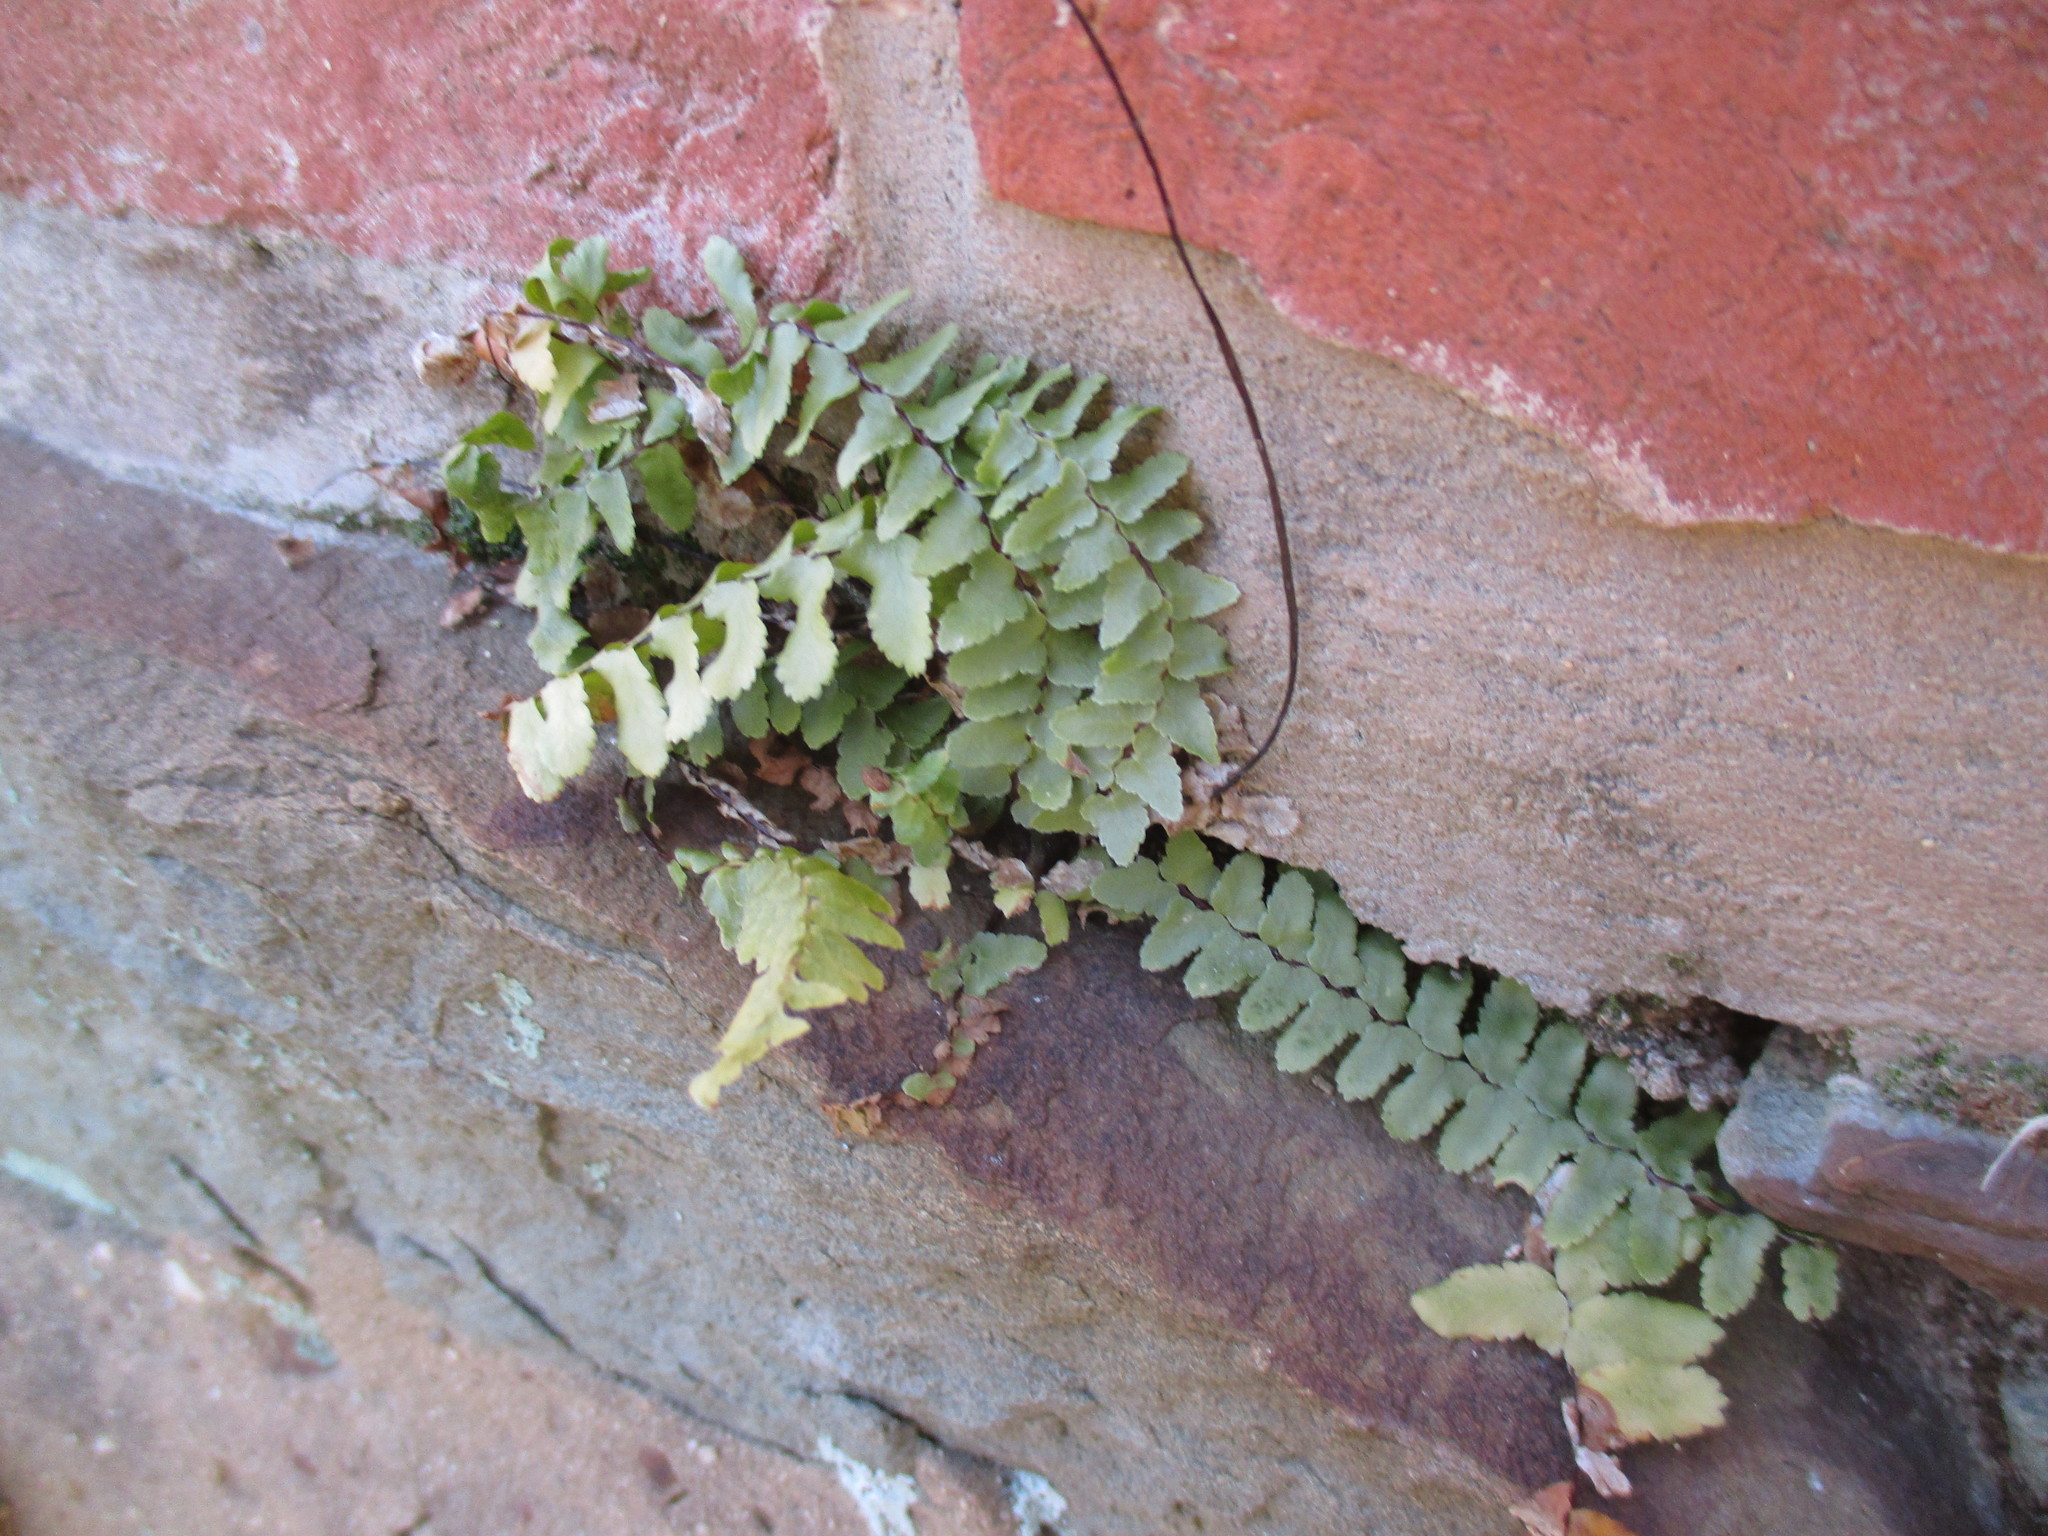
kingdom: Plantae
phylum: Tracheophyta
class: Polypodiopsida
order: Polypodiales
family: Aspleniaceae
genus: Asplenium
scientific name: Asplenium platyneuron
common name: Ebony spleenwort
